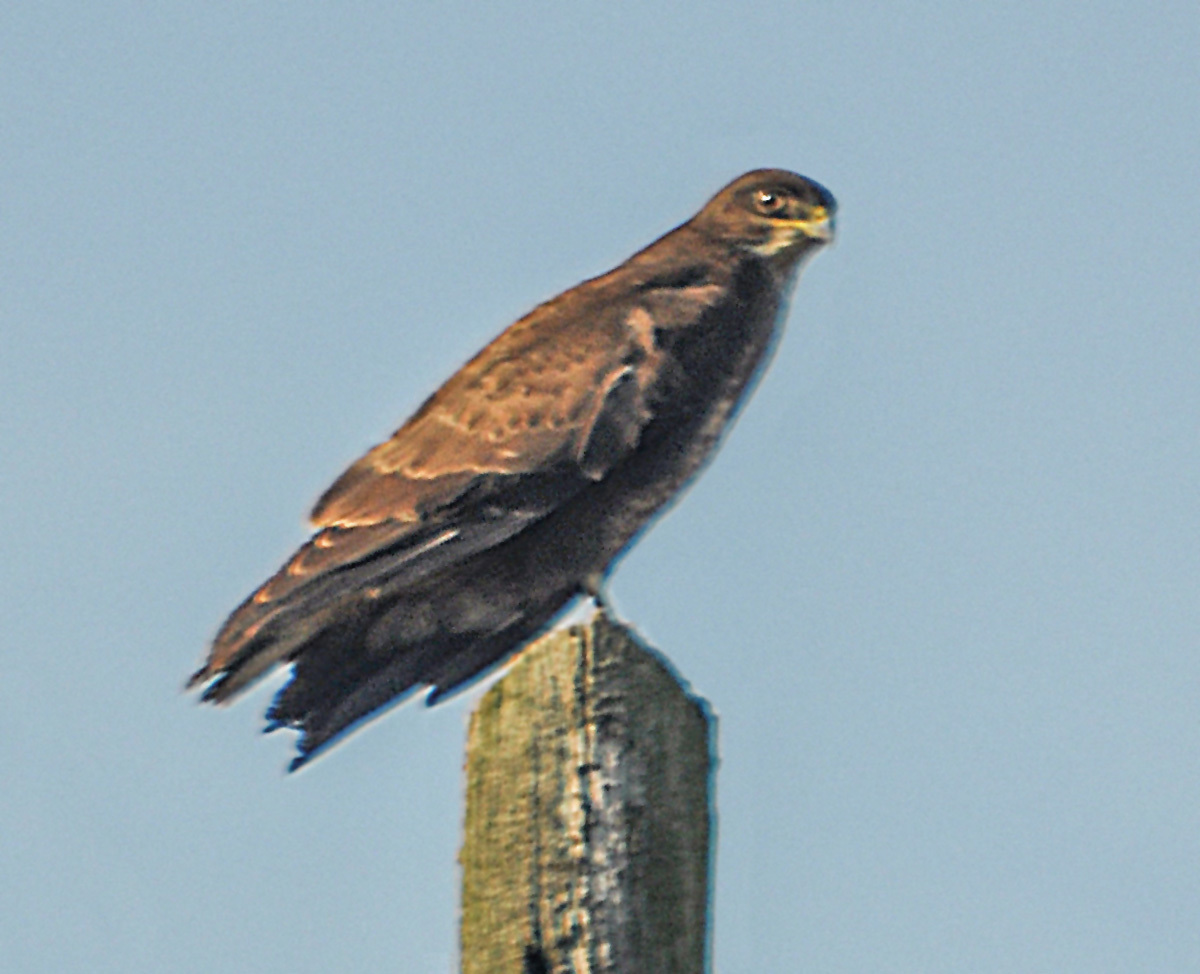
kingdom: Animalia
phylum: Chordata
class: Aves
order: Accipitriformes
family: Accipitridae
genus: Buteo
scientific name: Buteo buteo
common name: Common buzzard
